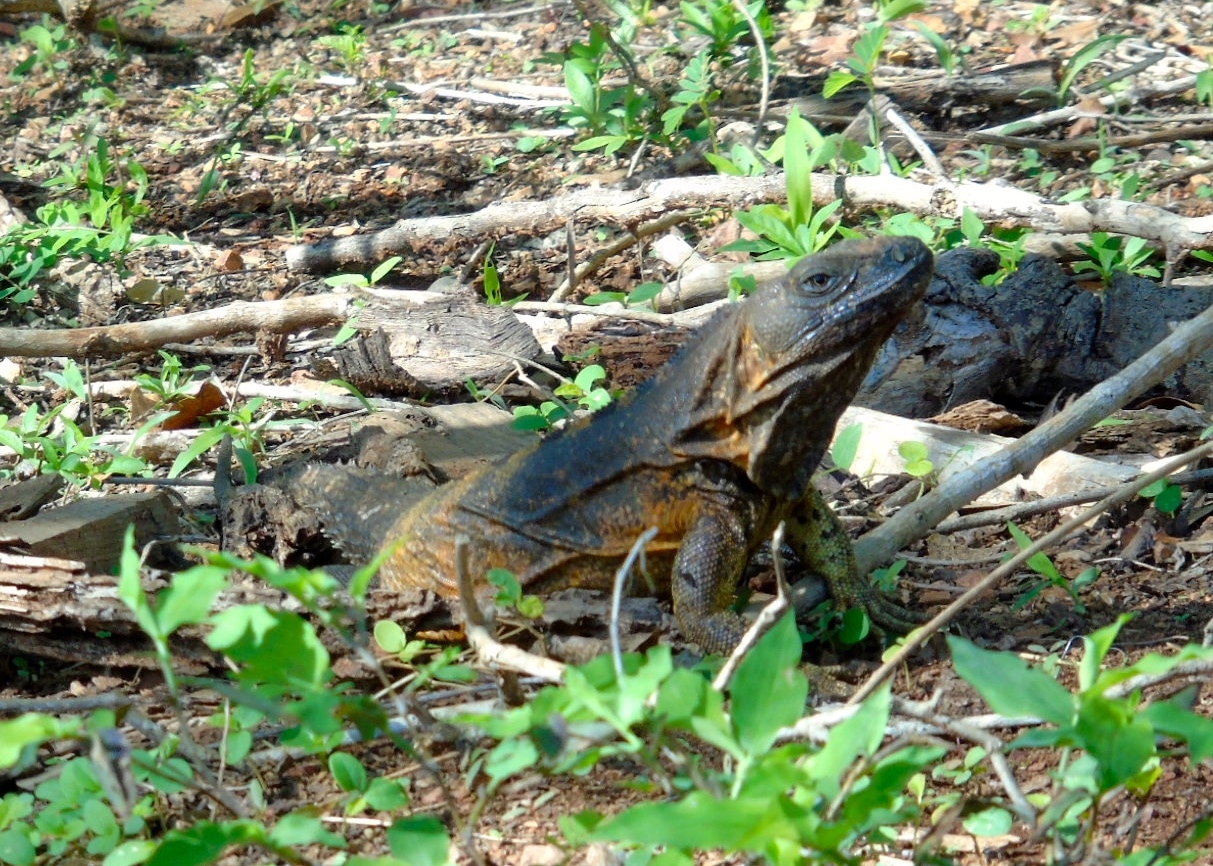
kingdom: Animalia
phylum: Chordata
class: Squamata
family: Iguanidae
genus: Ctenosaura
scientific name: Ctenosaura pectinata
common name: Guerreran spiny-tailed iguana
